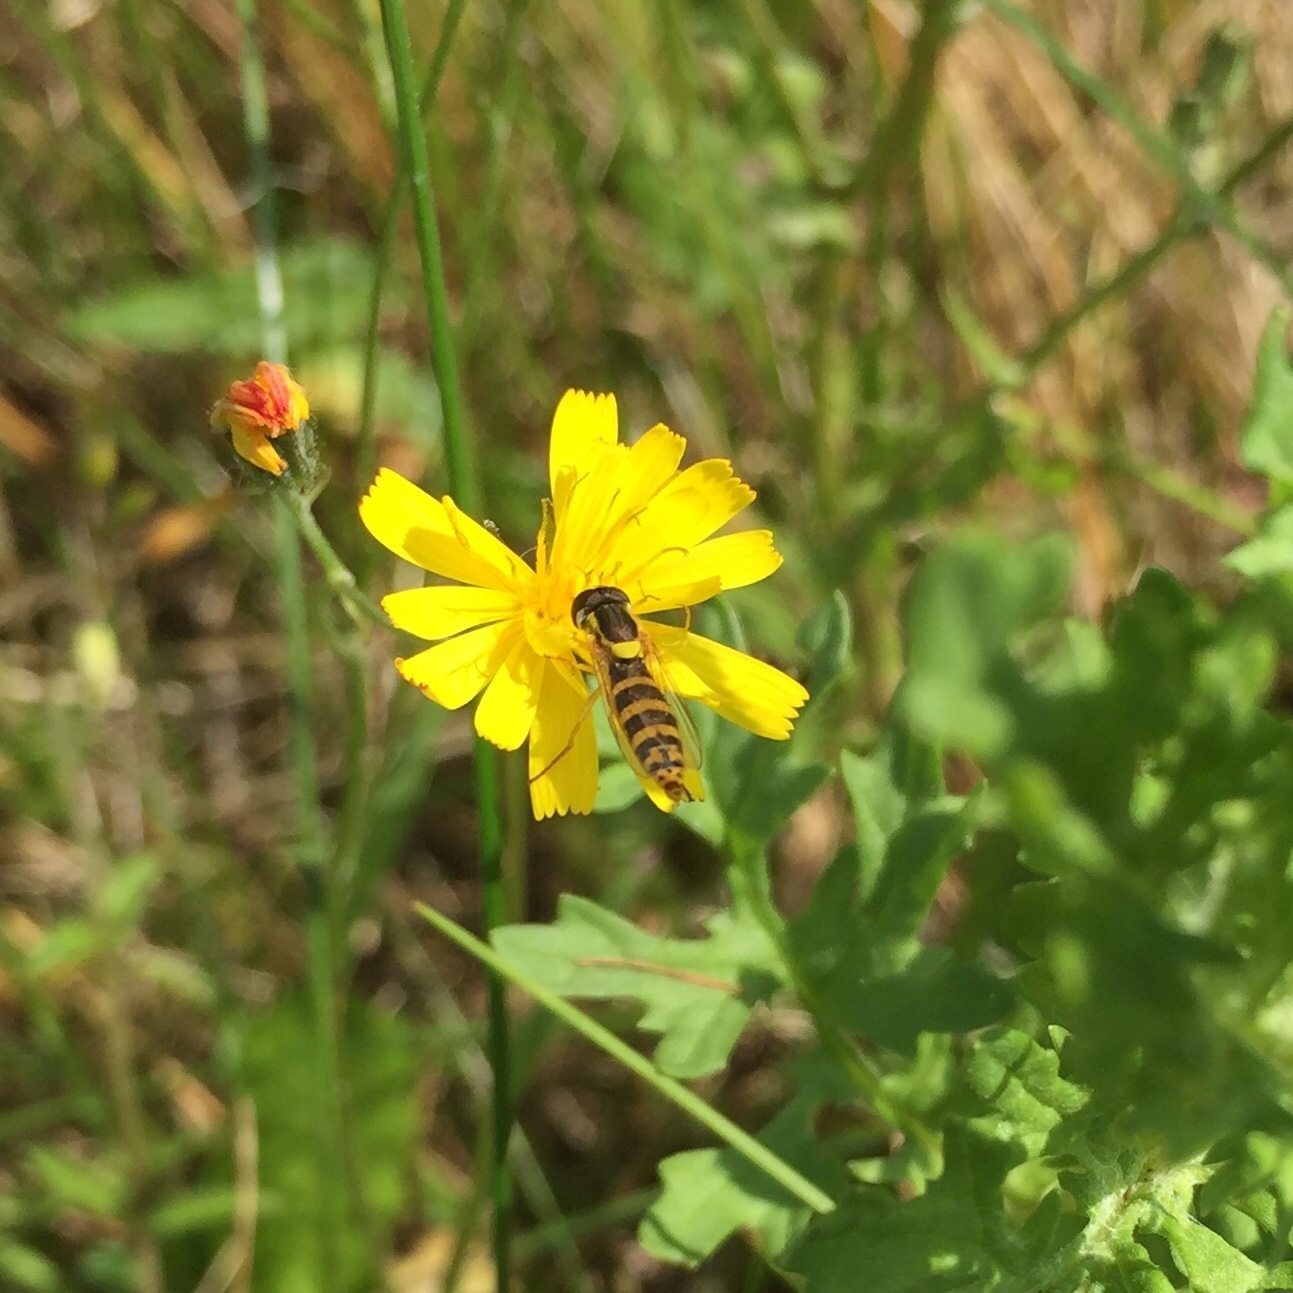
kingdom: Animalia
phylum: Arthropoda
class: Insecta
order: Diptera
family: Syrphidae
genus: Sphaerophoria
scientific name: Sphaerophoria
